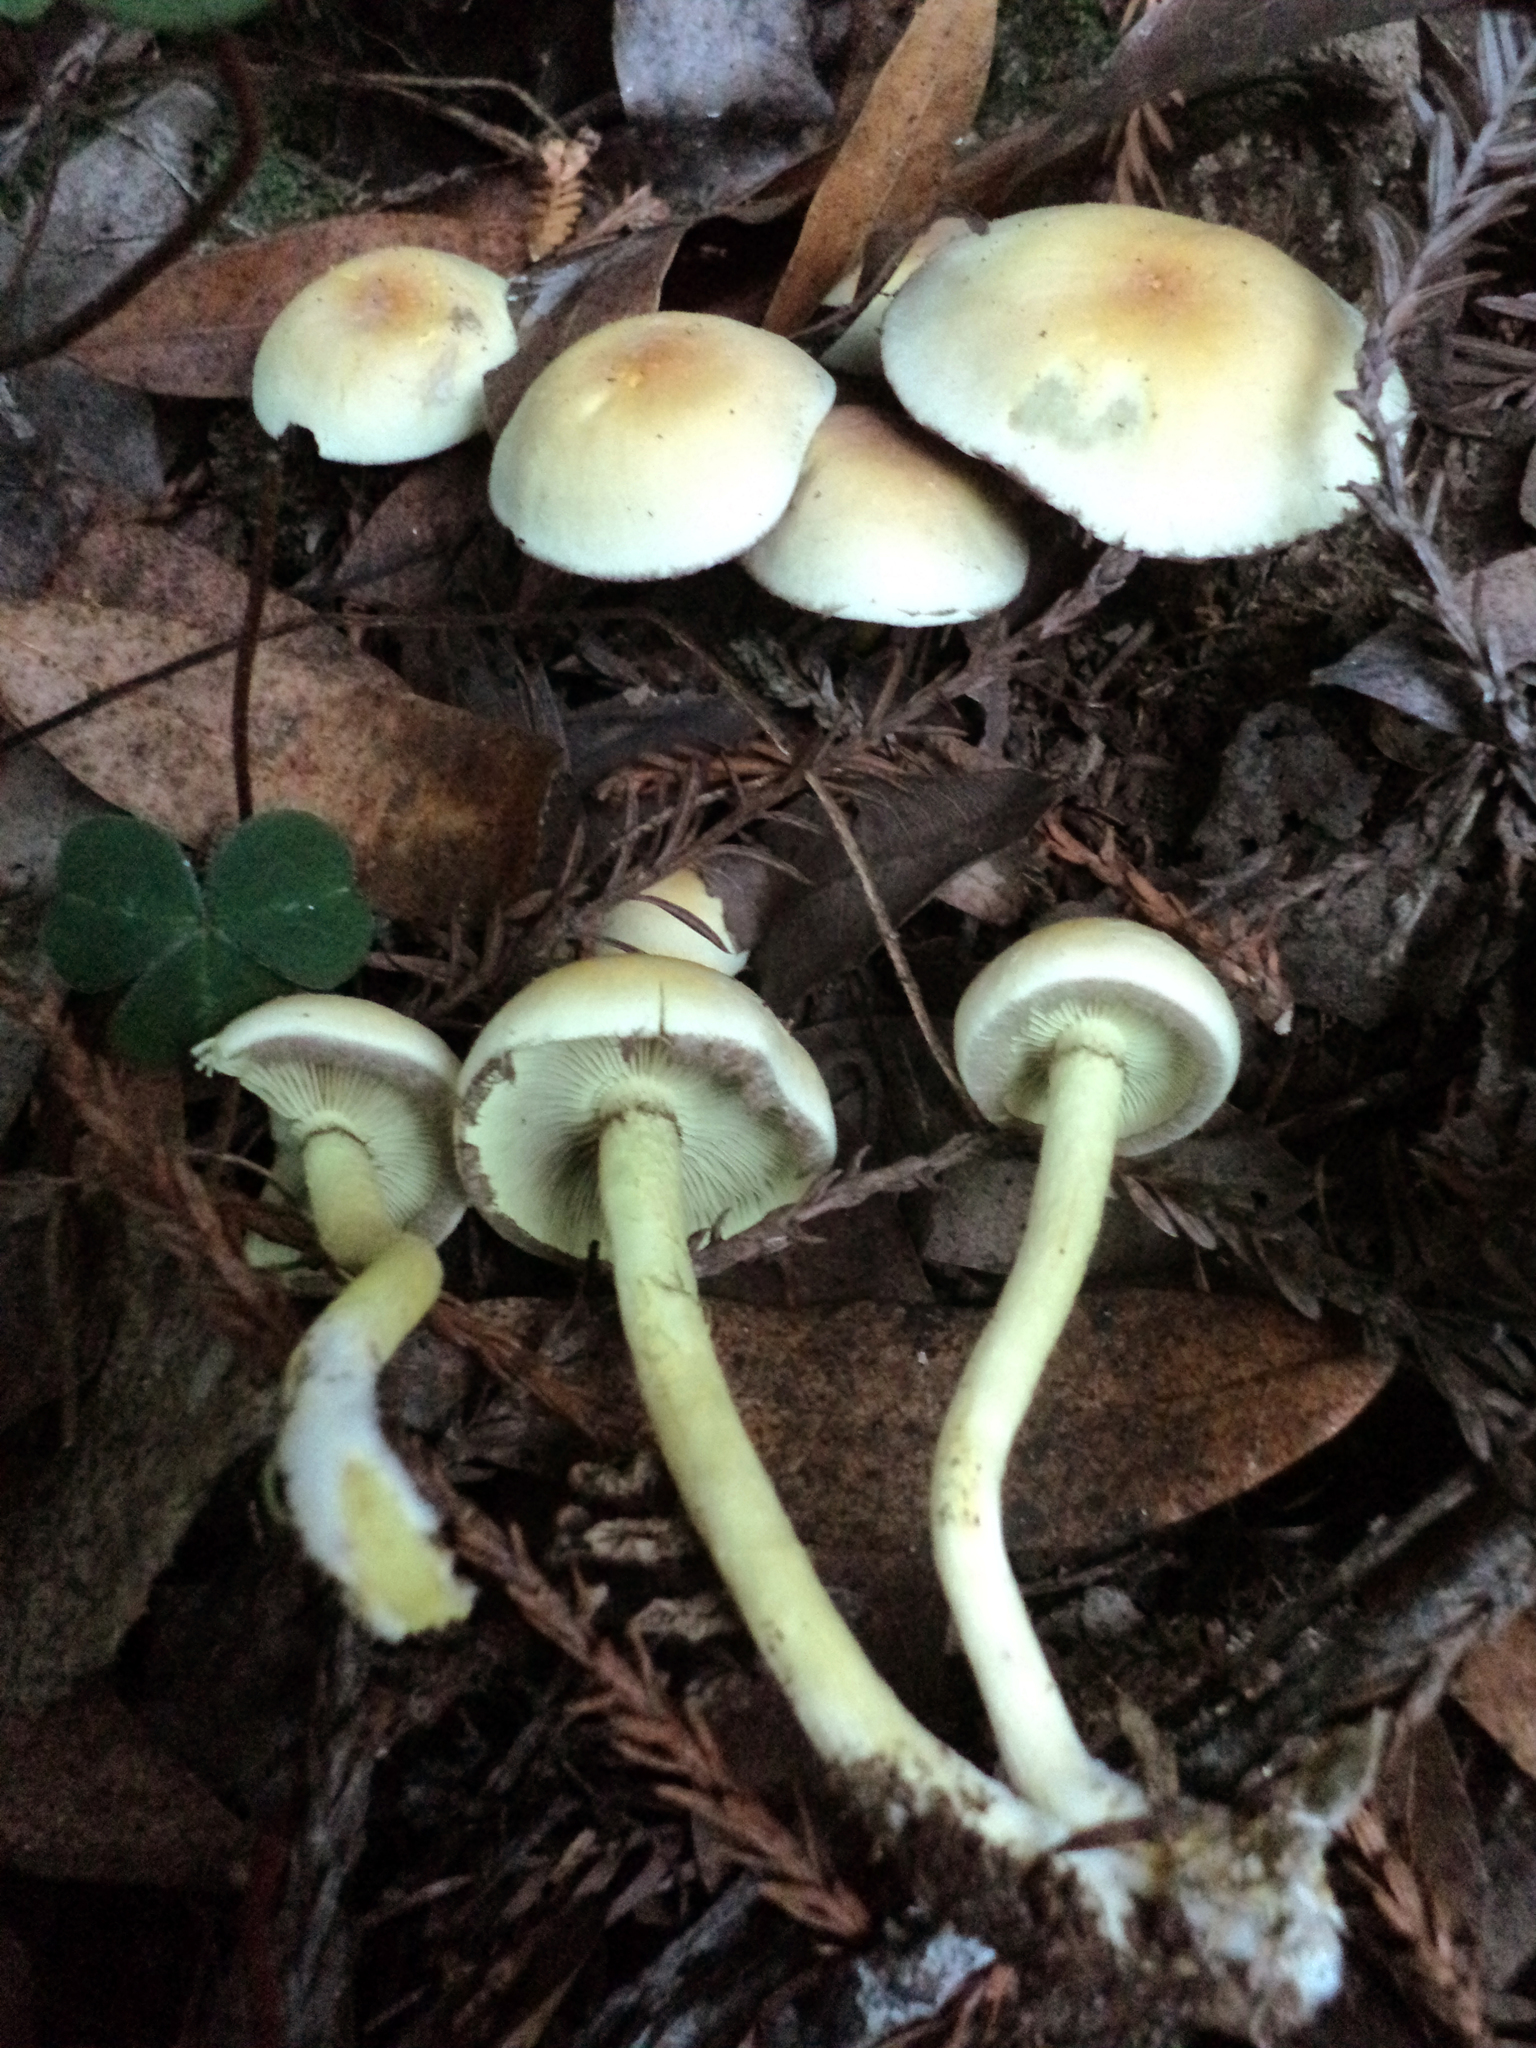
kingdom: Fungi
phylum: Basidiomycota
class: Agaricomycetes
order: Agaricales
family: Strophariaceae
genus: Hypholoma
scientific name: Hypholoma fasciculare
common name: Sulphur tuft
